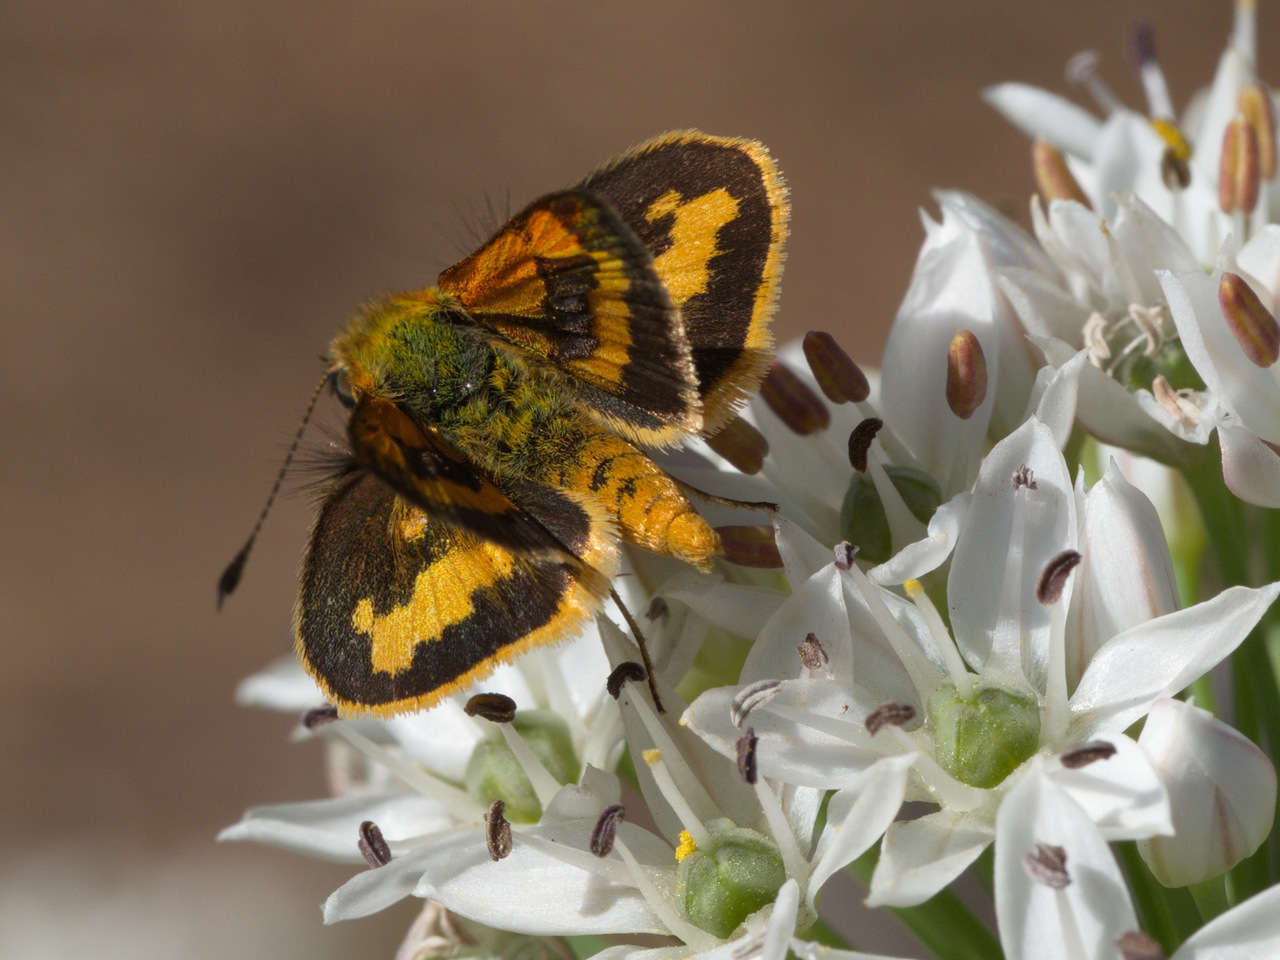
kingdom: Animalia
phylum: Arthropoda
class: Insecta
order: Lepidoptera
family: Hesperiidae
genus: Ocybadistes
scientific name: Ocybadistes walkeri
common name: Yellow-banded dart
